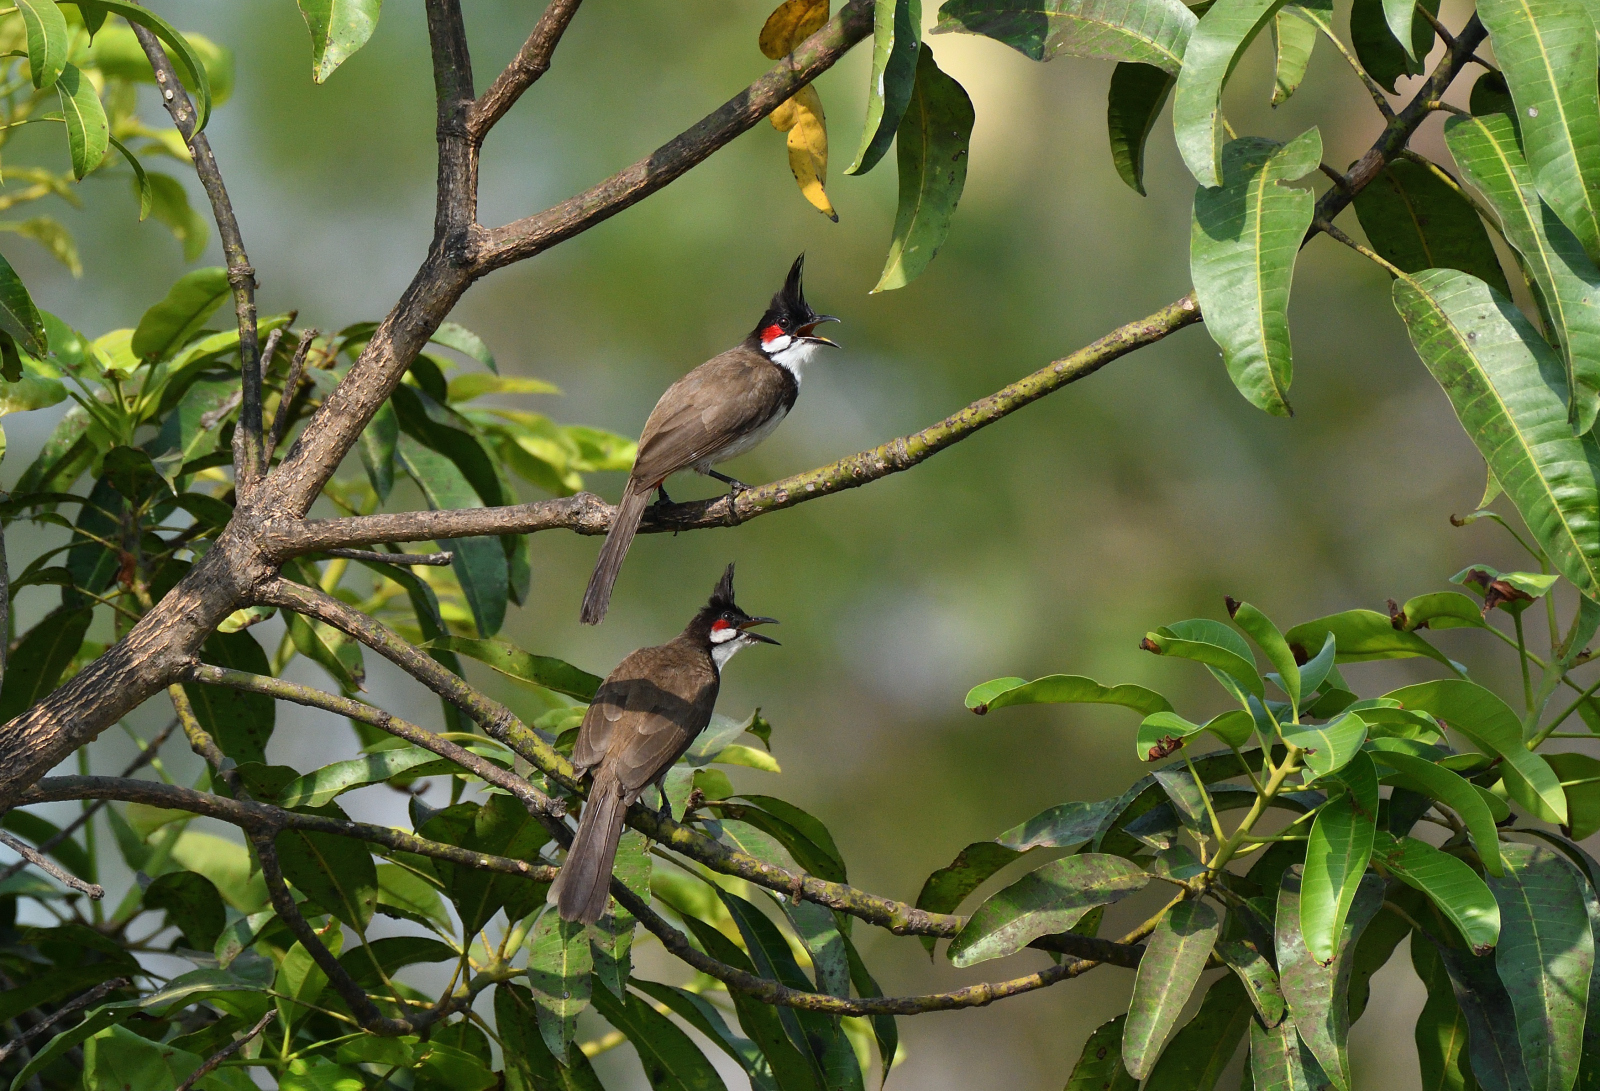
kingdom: Animalia
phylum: Chordata
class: Aves
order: Passeriformes
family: Pycnonotidae
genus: Pycnonotus
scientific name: Pycnonotus jocosus
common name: Red-whiskered bulbul
